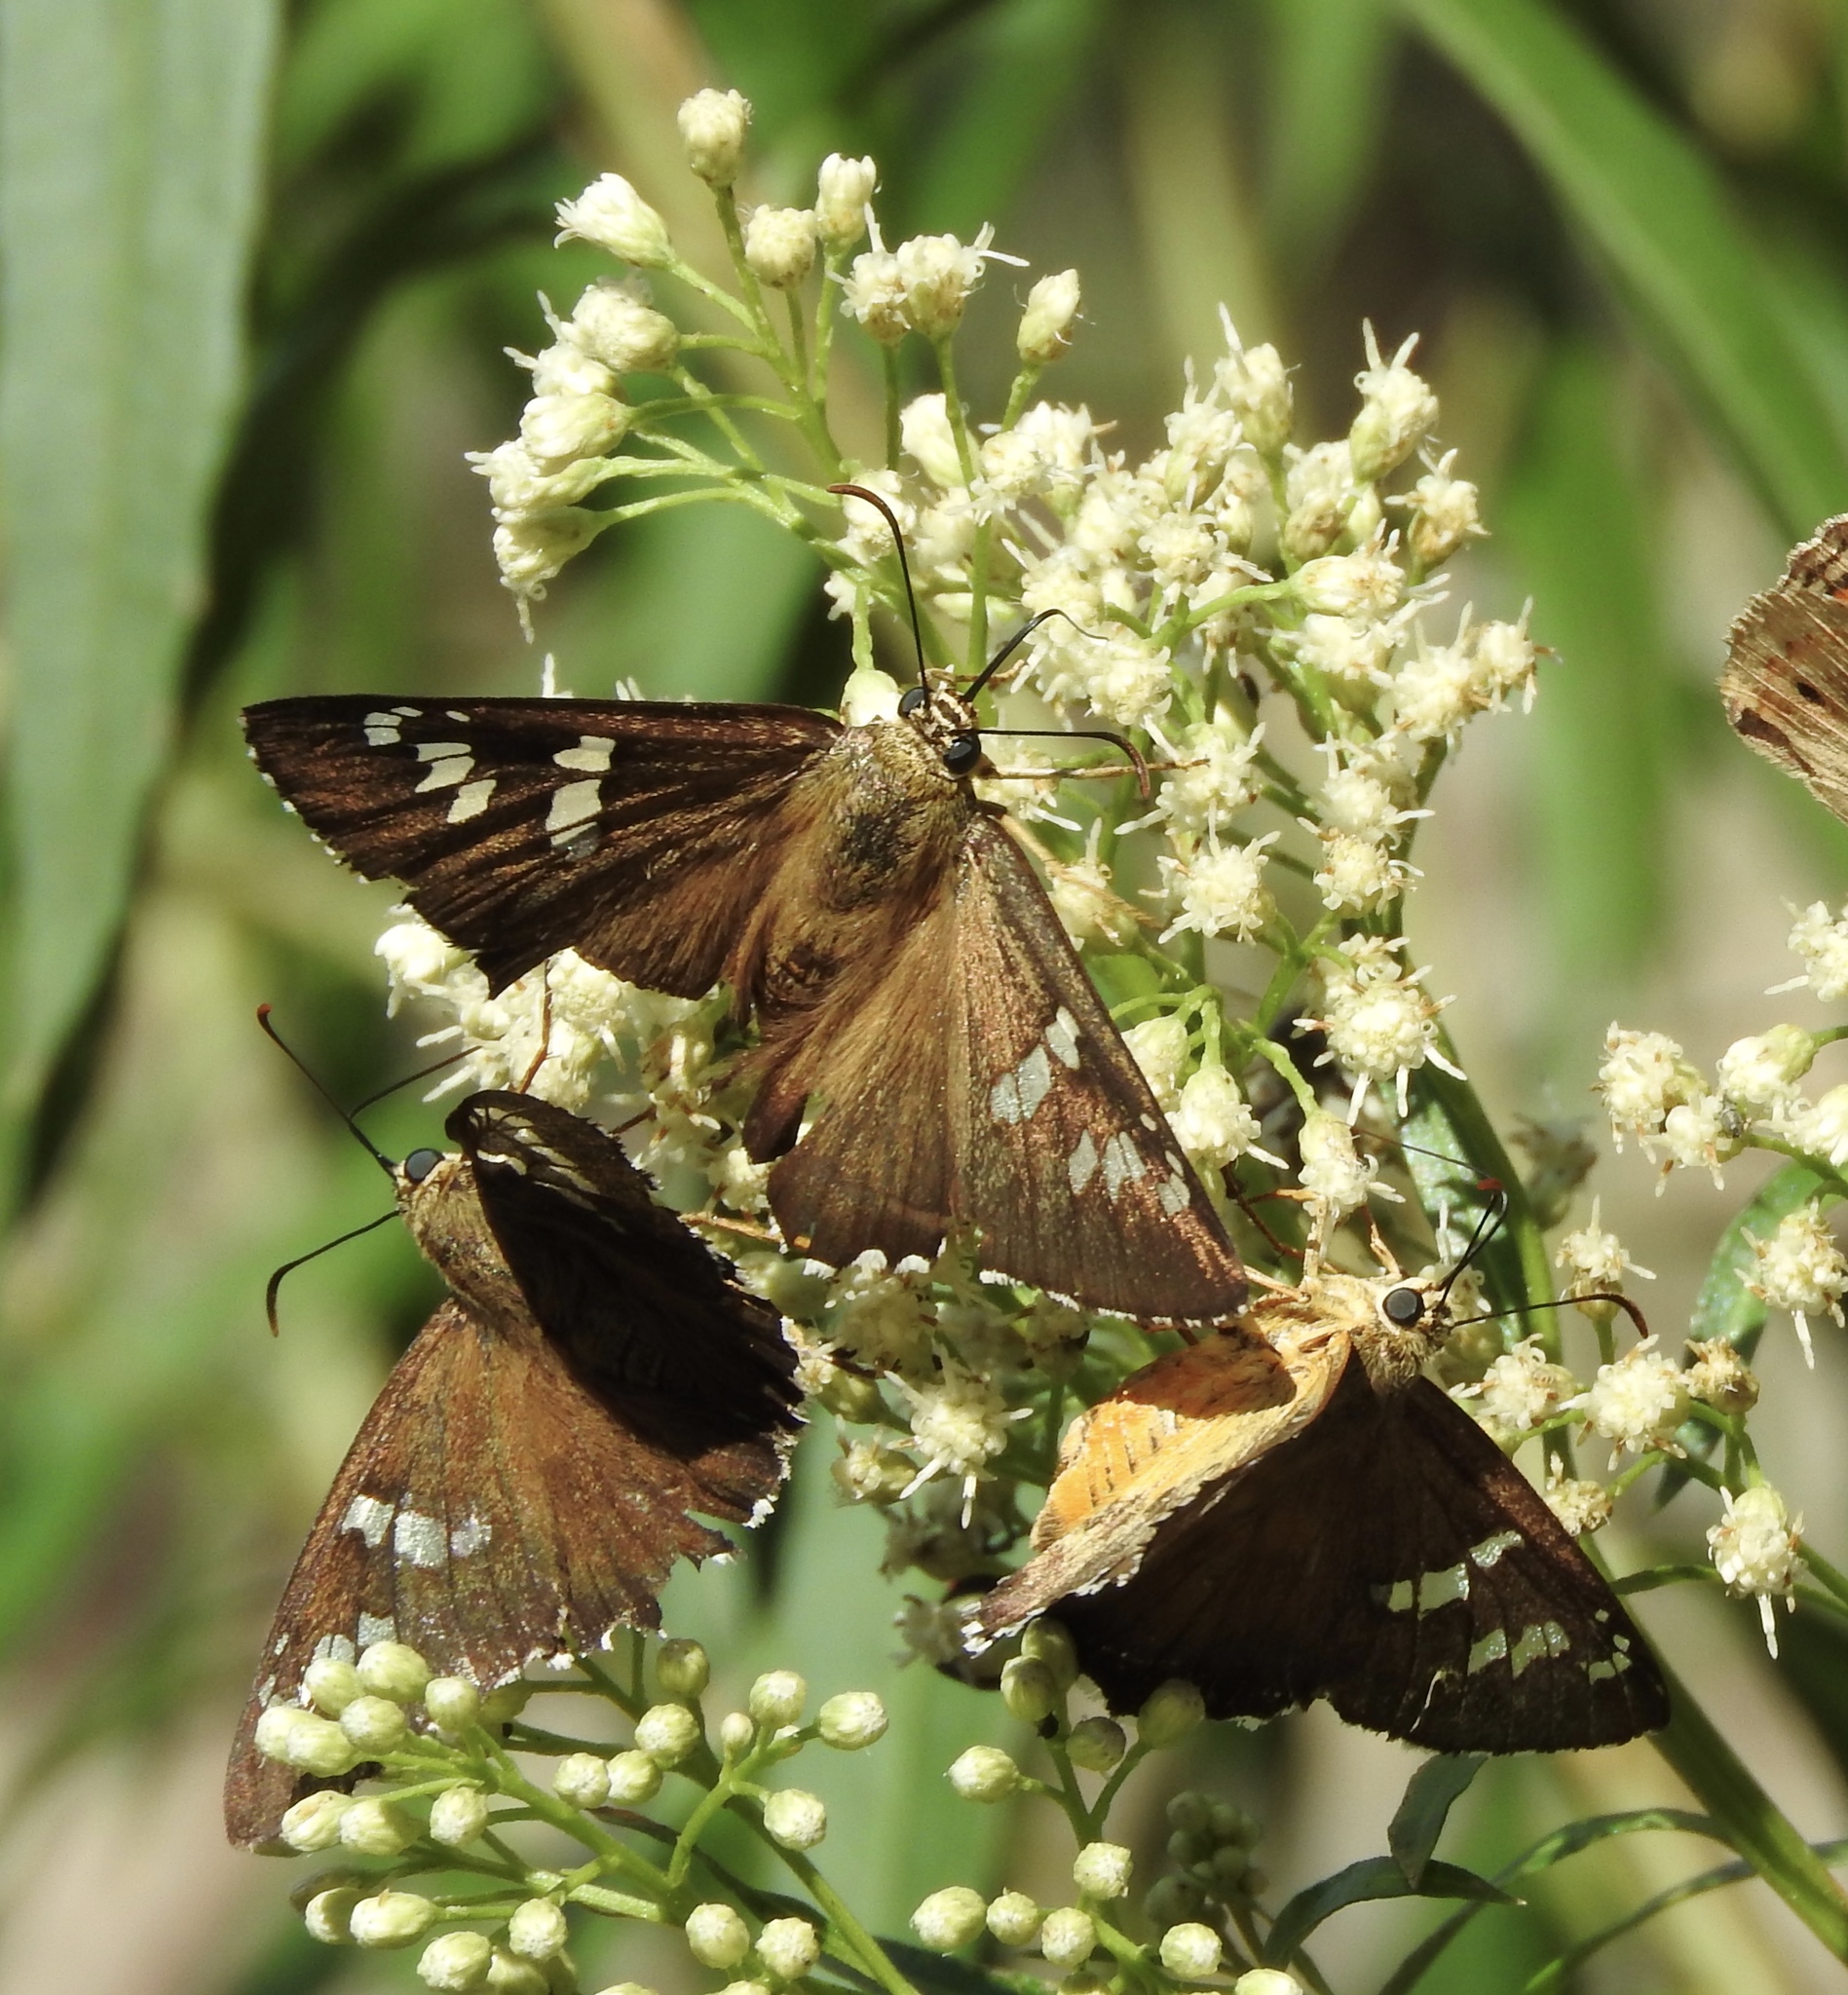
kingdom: Animalia
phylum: Arthropoda
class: Insecta
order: Lepidoptera
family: Hesperiidae
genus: Pyrrhopyge
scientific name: Pyrrhopyge araxes
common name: Dull firetip
